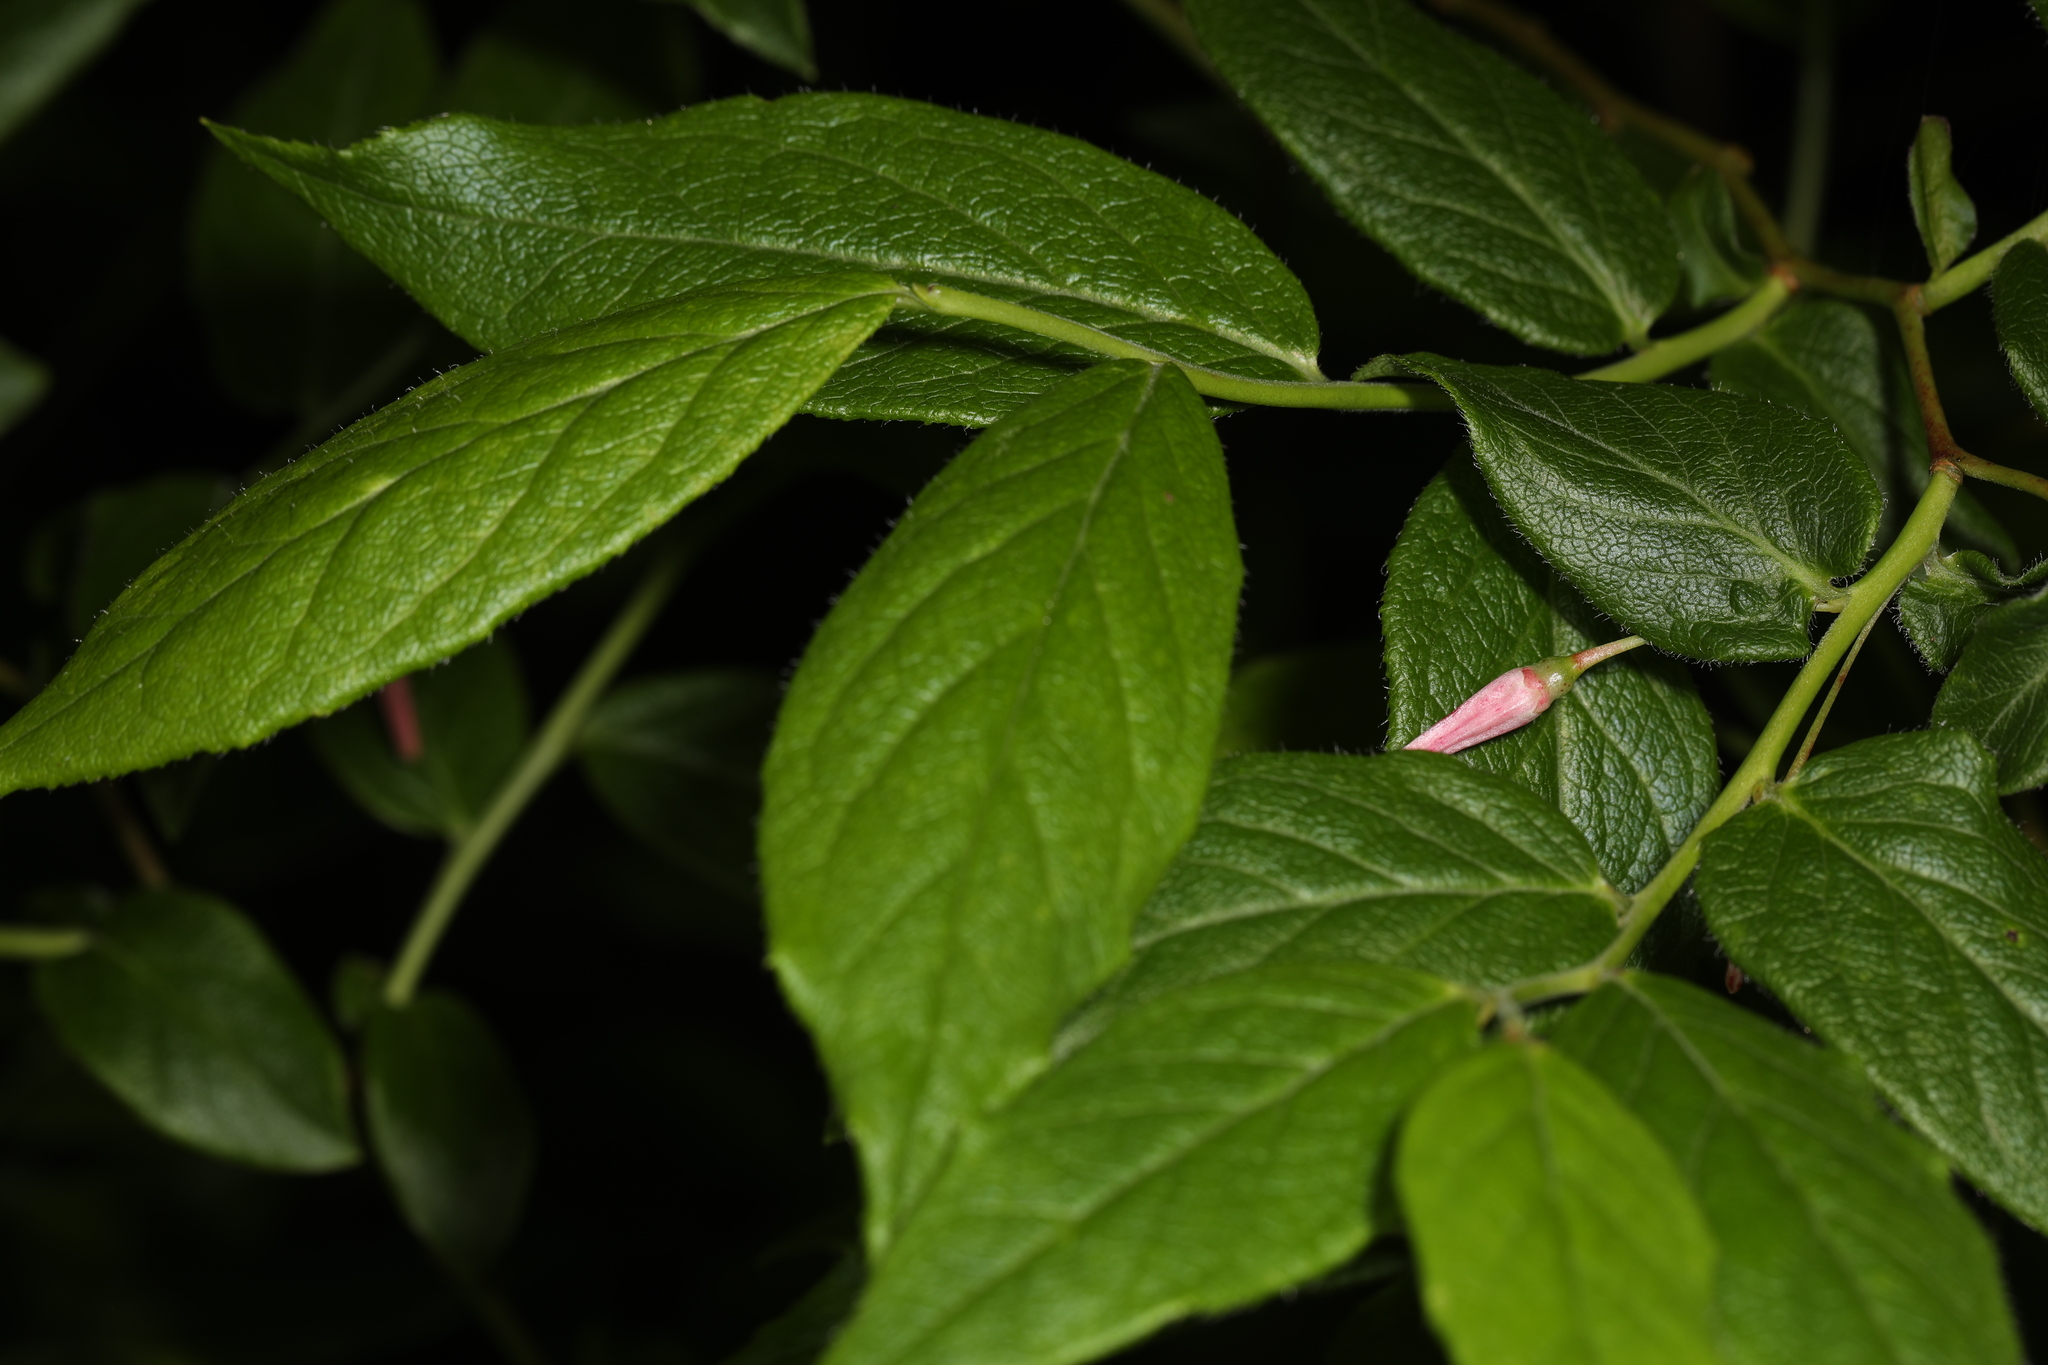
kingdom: Plantae
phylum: Tracheophyta
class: Magnoliopsida
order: Ericales
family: Ericaceae
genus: Vaccinium
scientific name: Vaccinium erythrocarpum
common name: Bearberry
